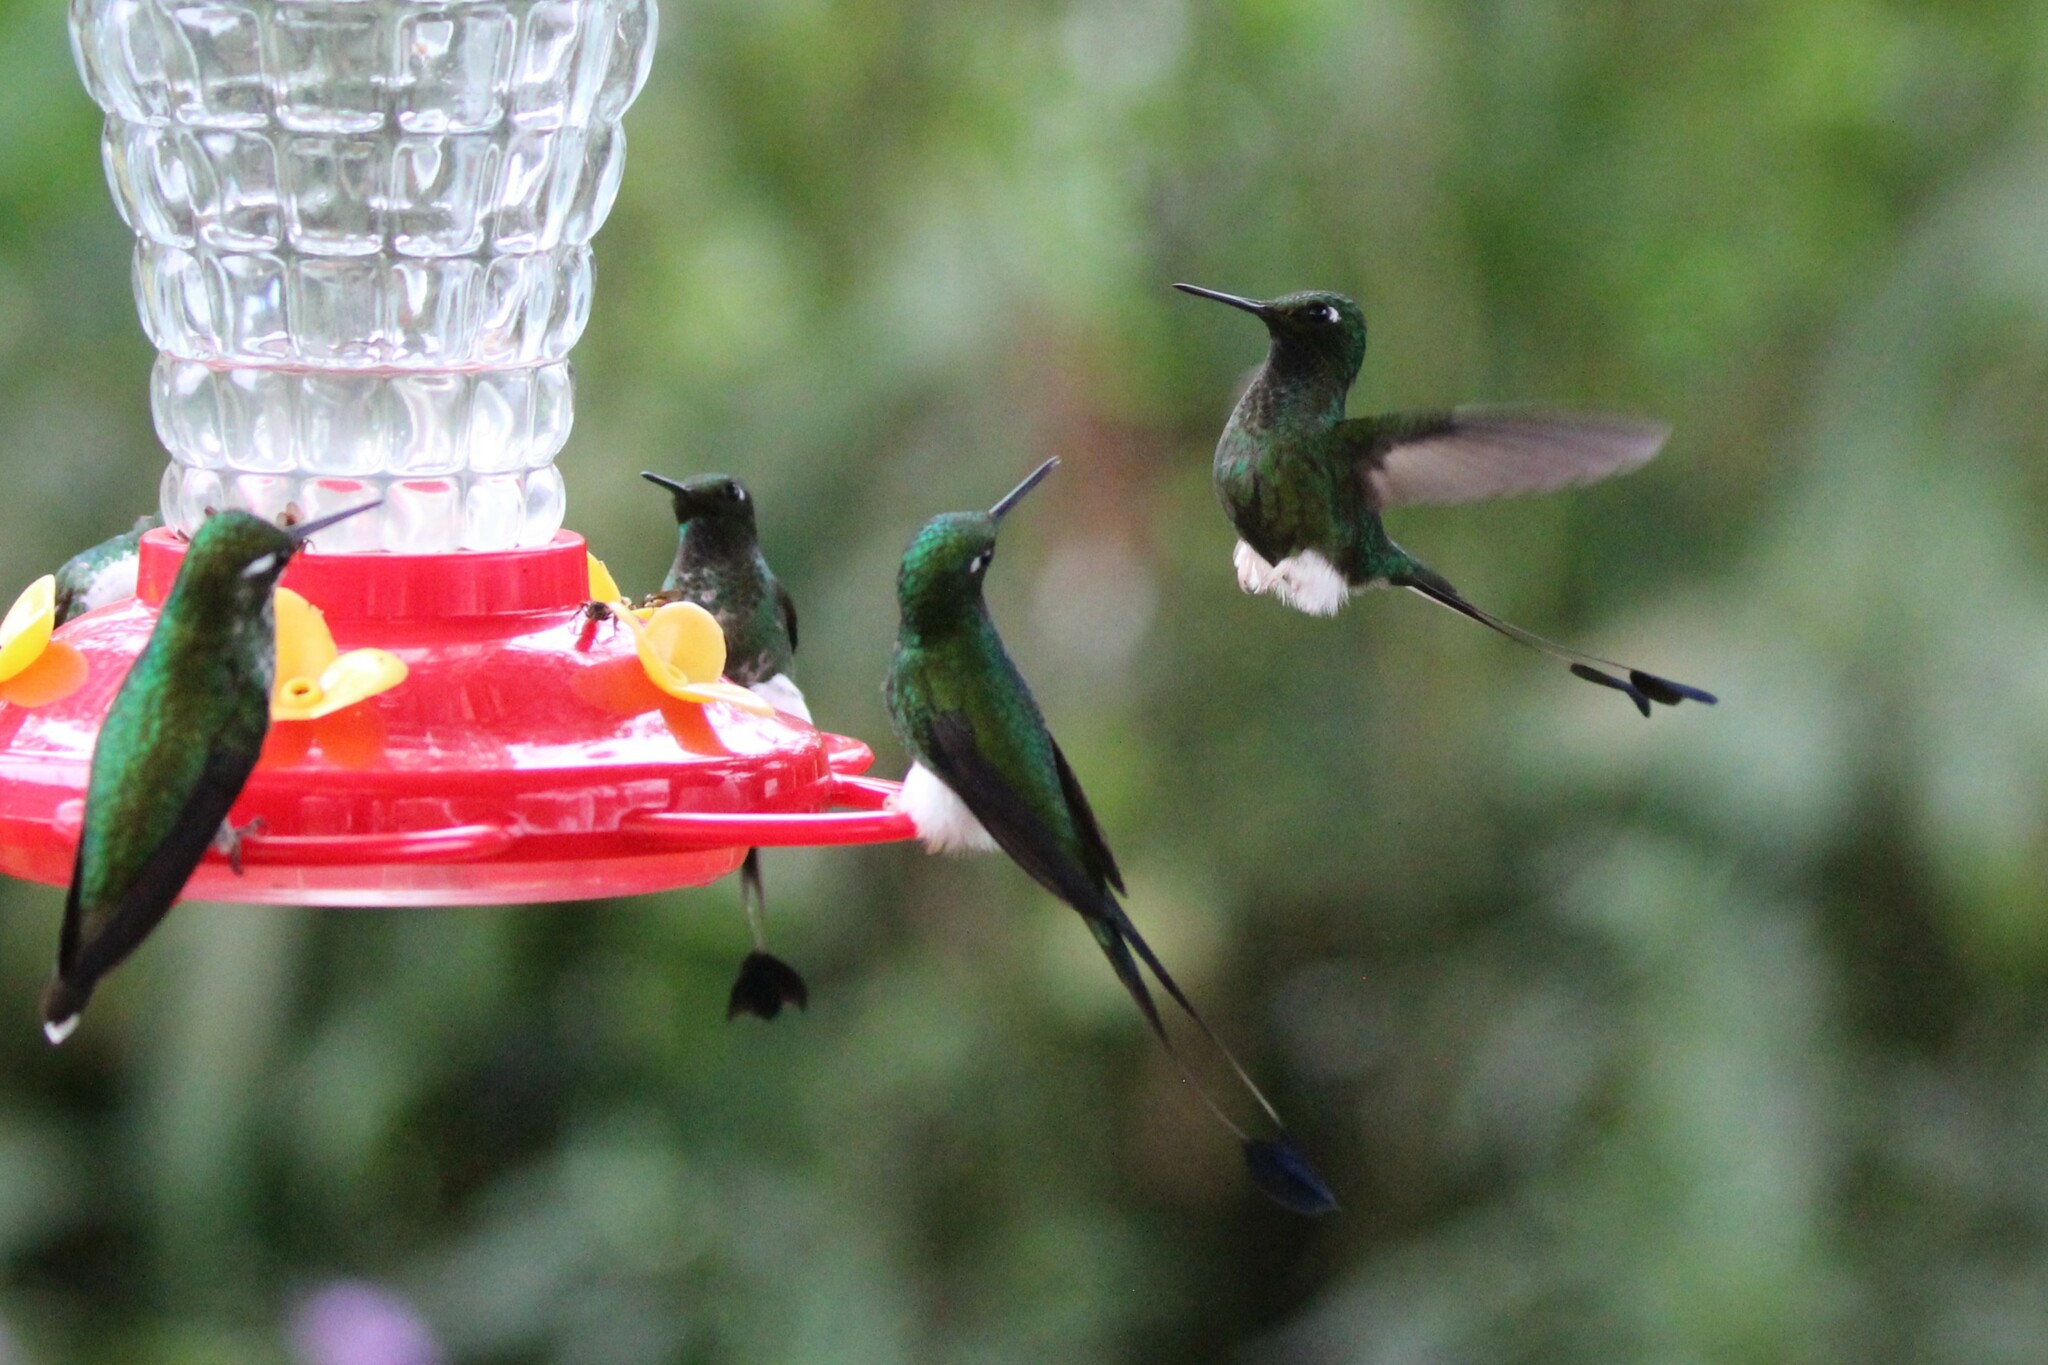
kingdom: Animalia
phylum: Chordata
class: Aves
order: Apodiformes
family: Trochilidae
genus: Ocreatus
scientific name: Ocreatus underwoodii
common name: Booted racket-tail
